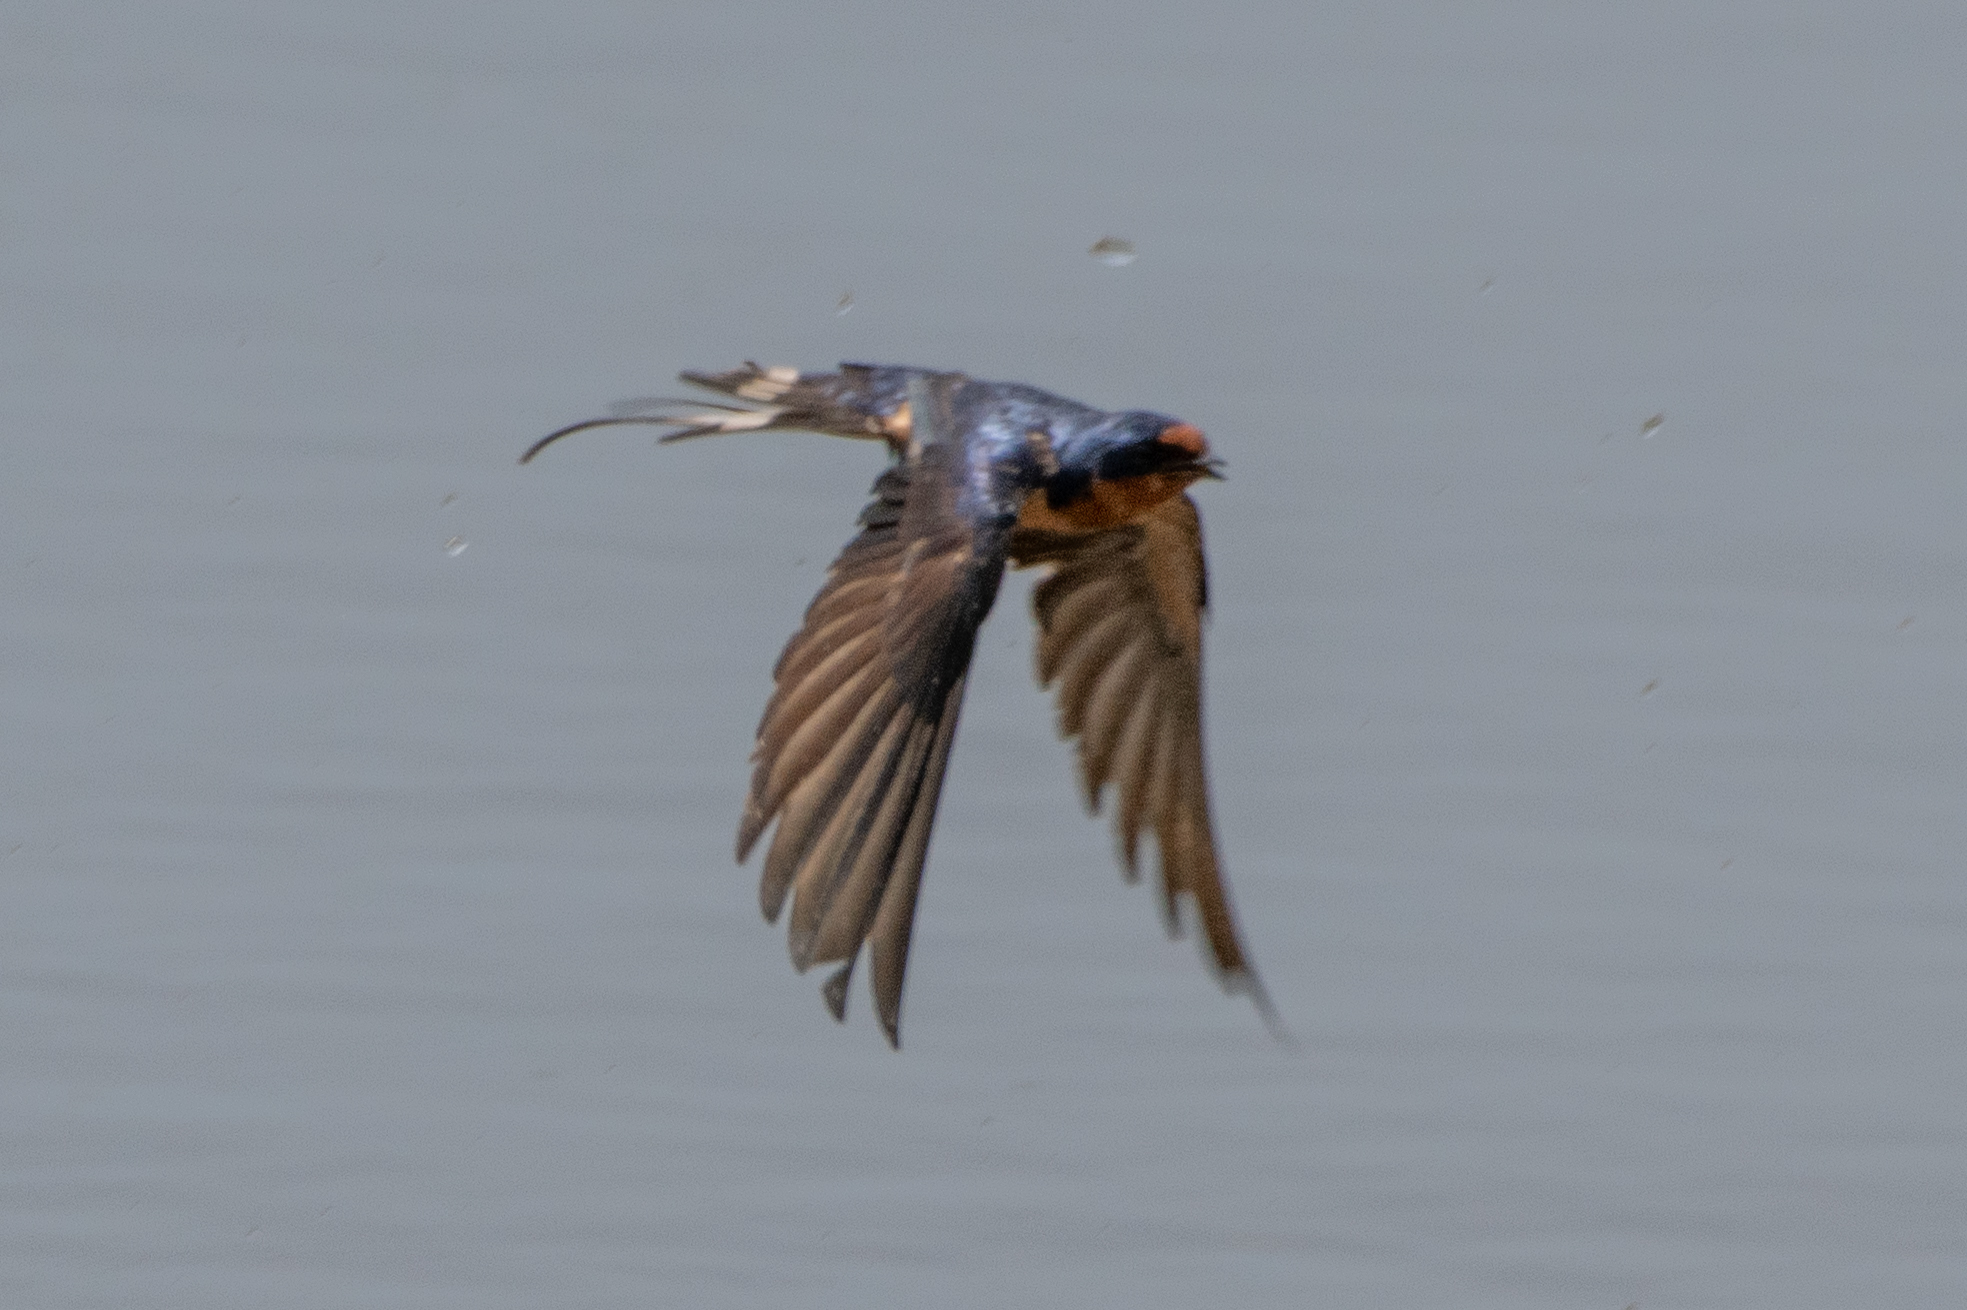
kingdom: Animalia
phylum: Chordata
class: Aves
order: Passeriformes
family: Hirundinidae
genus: Hirundo
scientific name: Hirundo rustica
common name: Barn swallow
